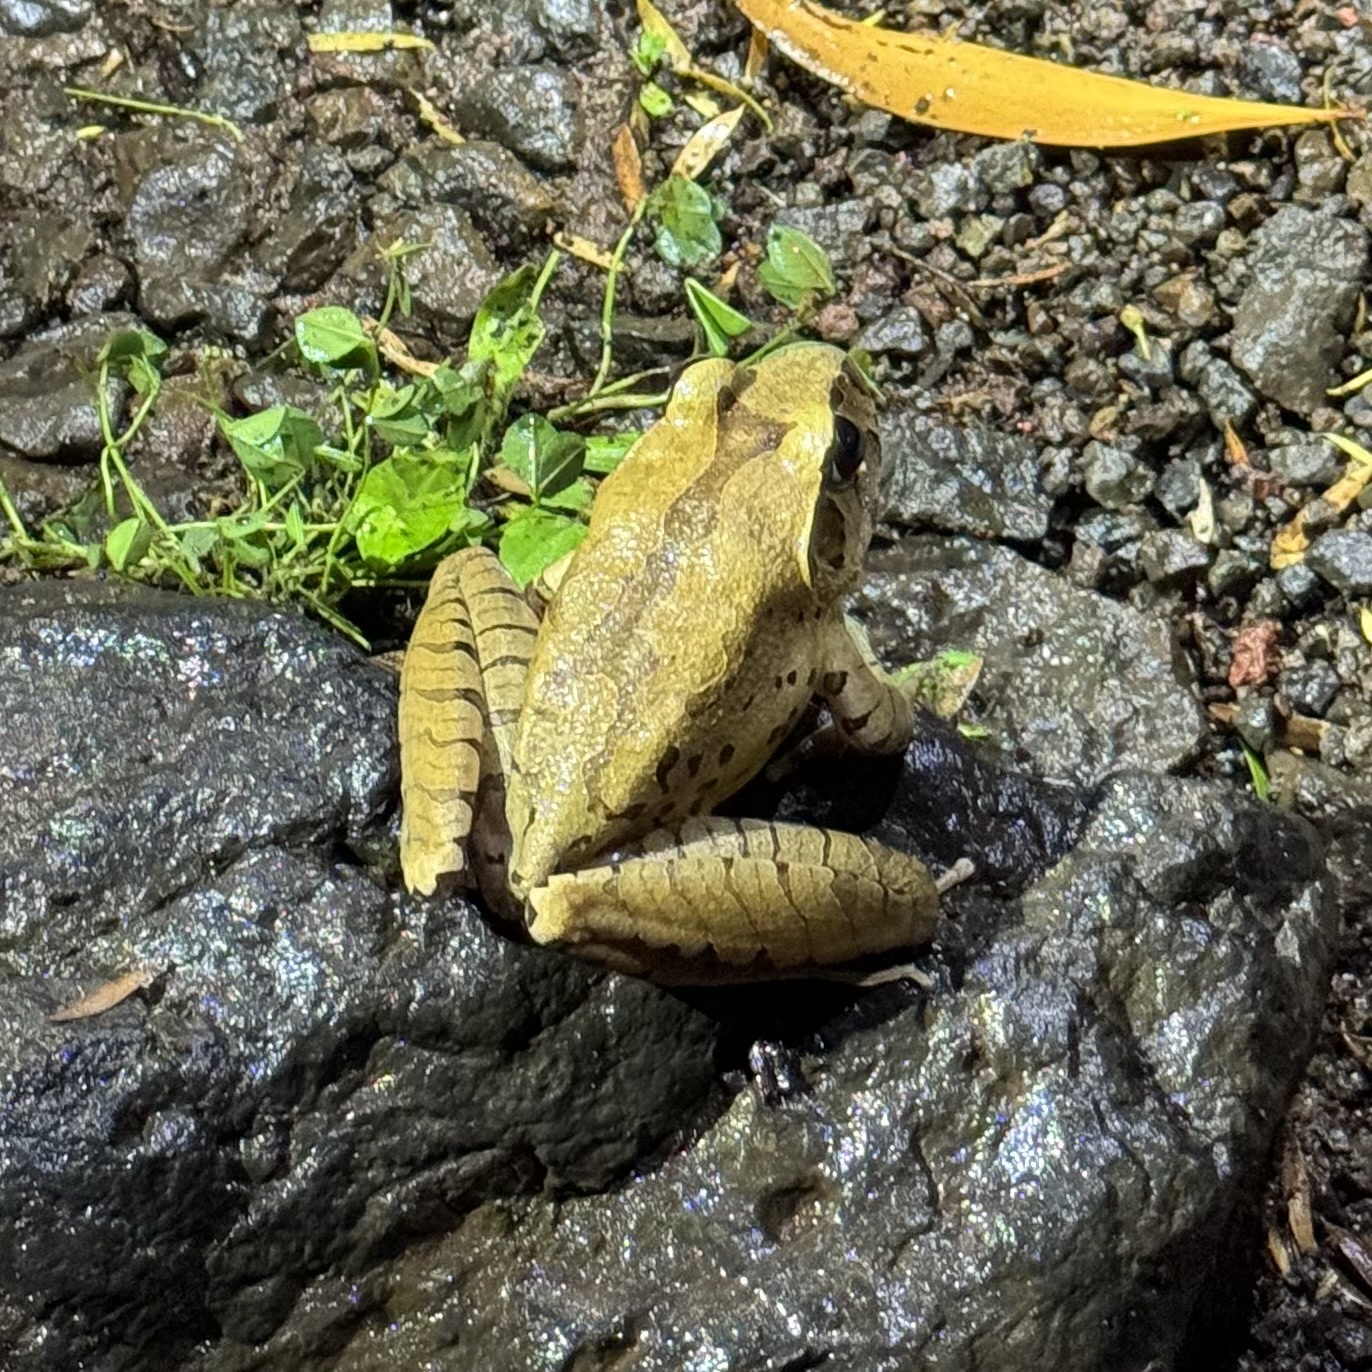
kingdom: Animalia
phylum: Chordata
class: Amphibia
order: Anura
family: Myobatrachidae
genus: Mixophyes
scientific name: Mixophyes fleayi
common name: Fleay’s barred-frog
